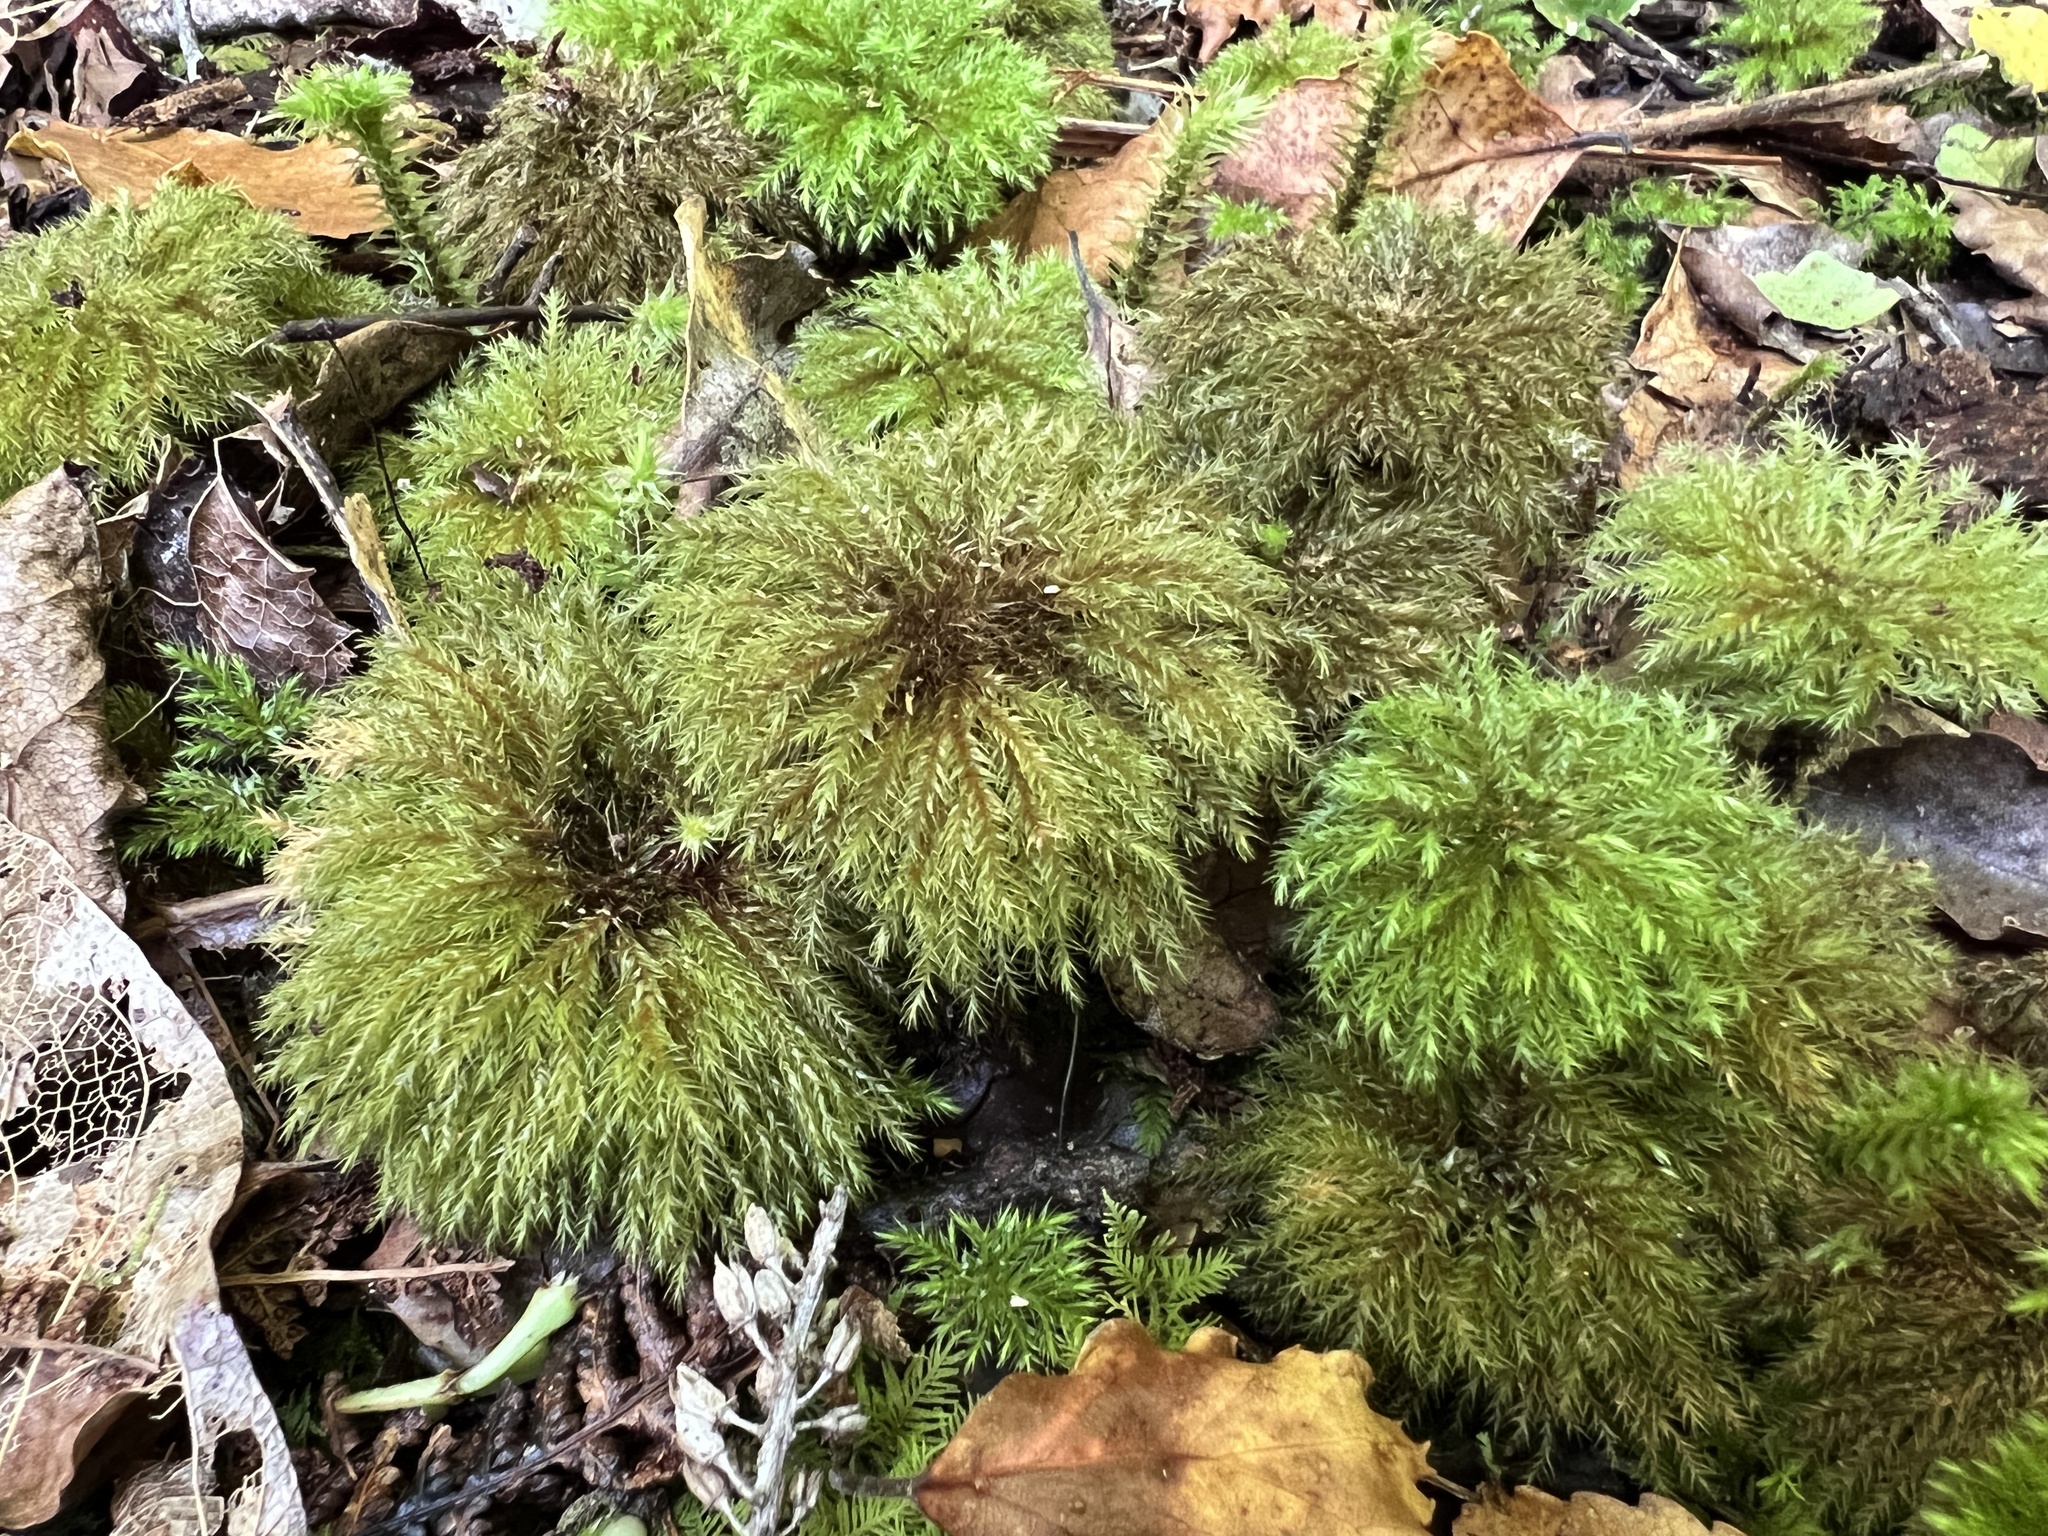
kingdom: Plantae
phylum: Bryophyta
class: Bryopsida
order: Hypnodendrales
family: Spiridentaceae
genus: Mniodendron
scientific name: Mniodendron comatum
